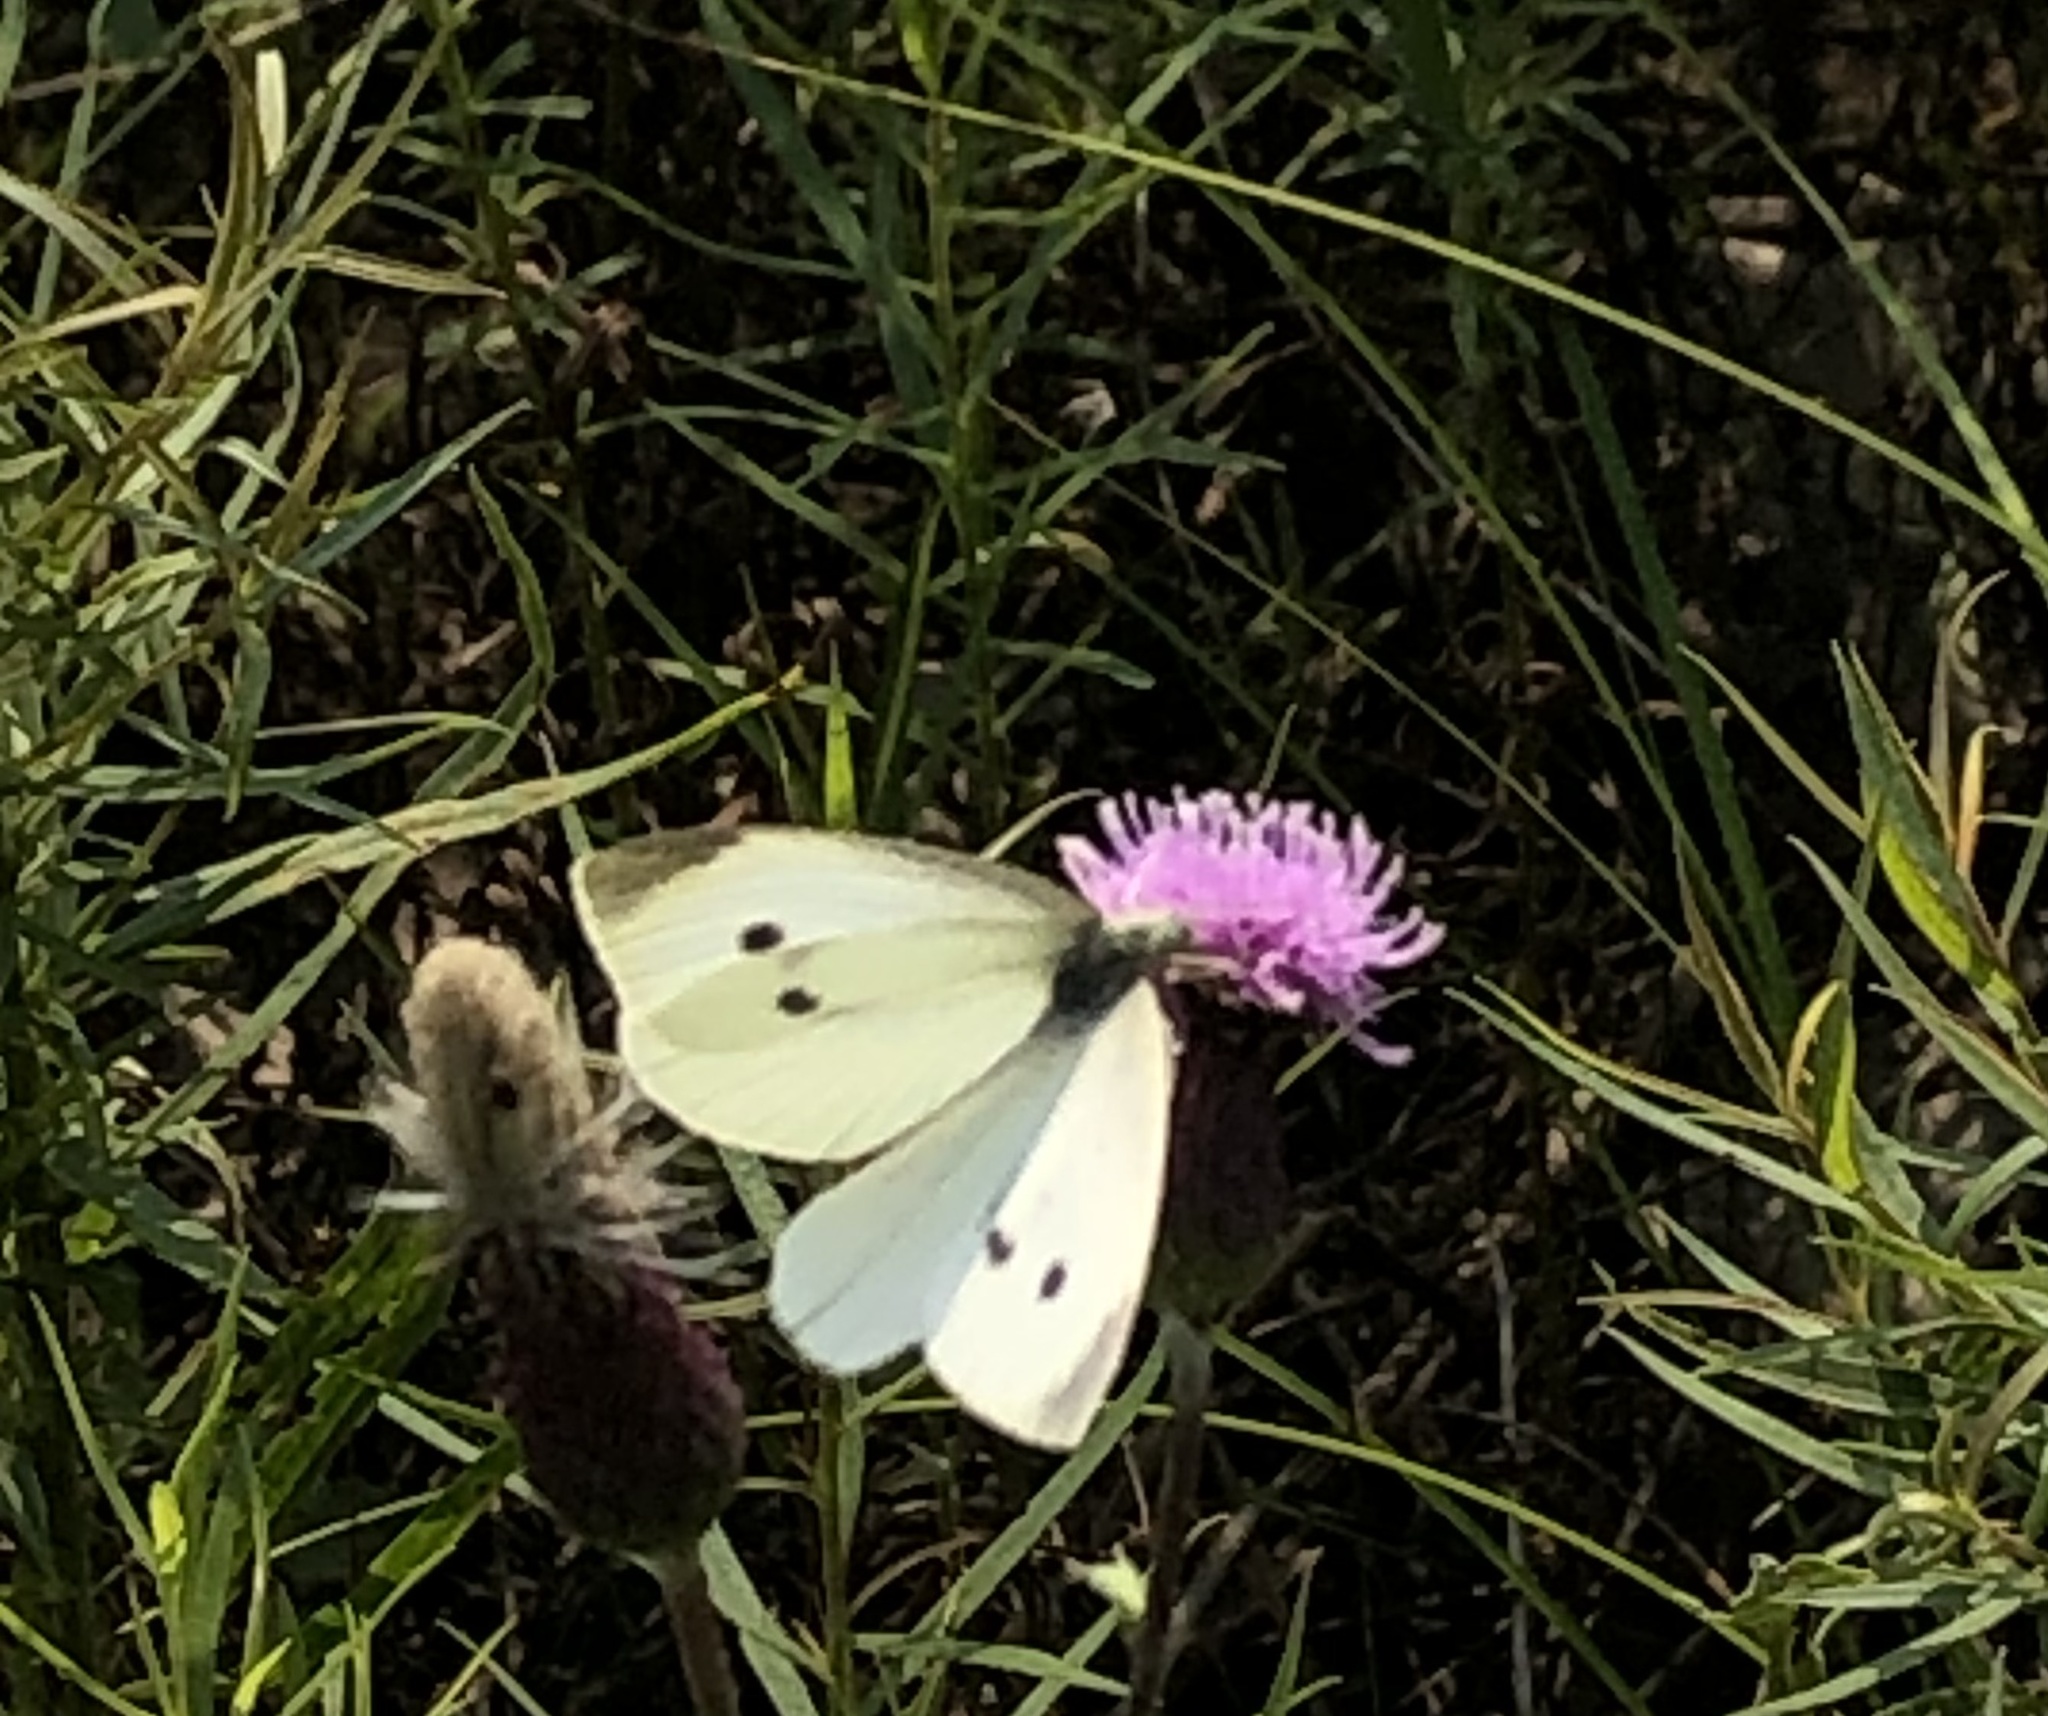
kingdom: Animalia
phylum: Arthropoda
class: Insecta
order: Lepidoptera
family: Pieridae
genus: Pieris
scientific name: Pieris rapae
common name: Small white
